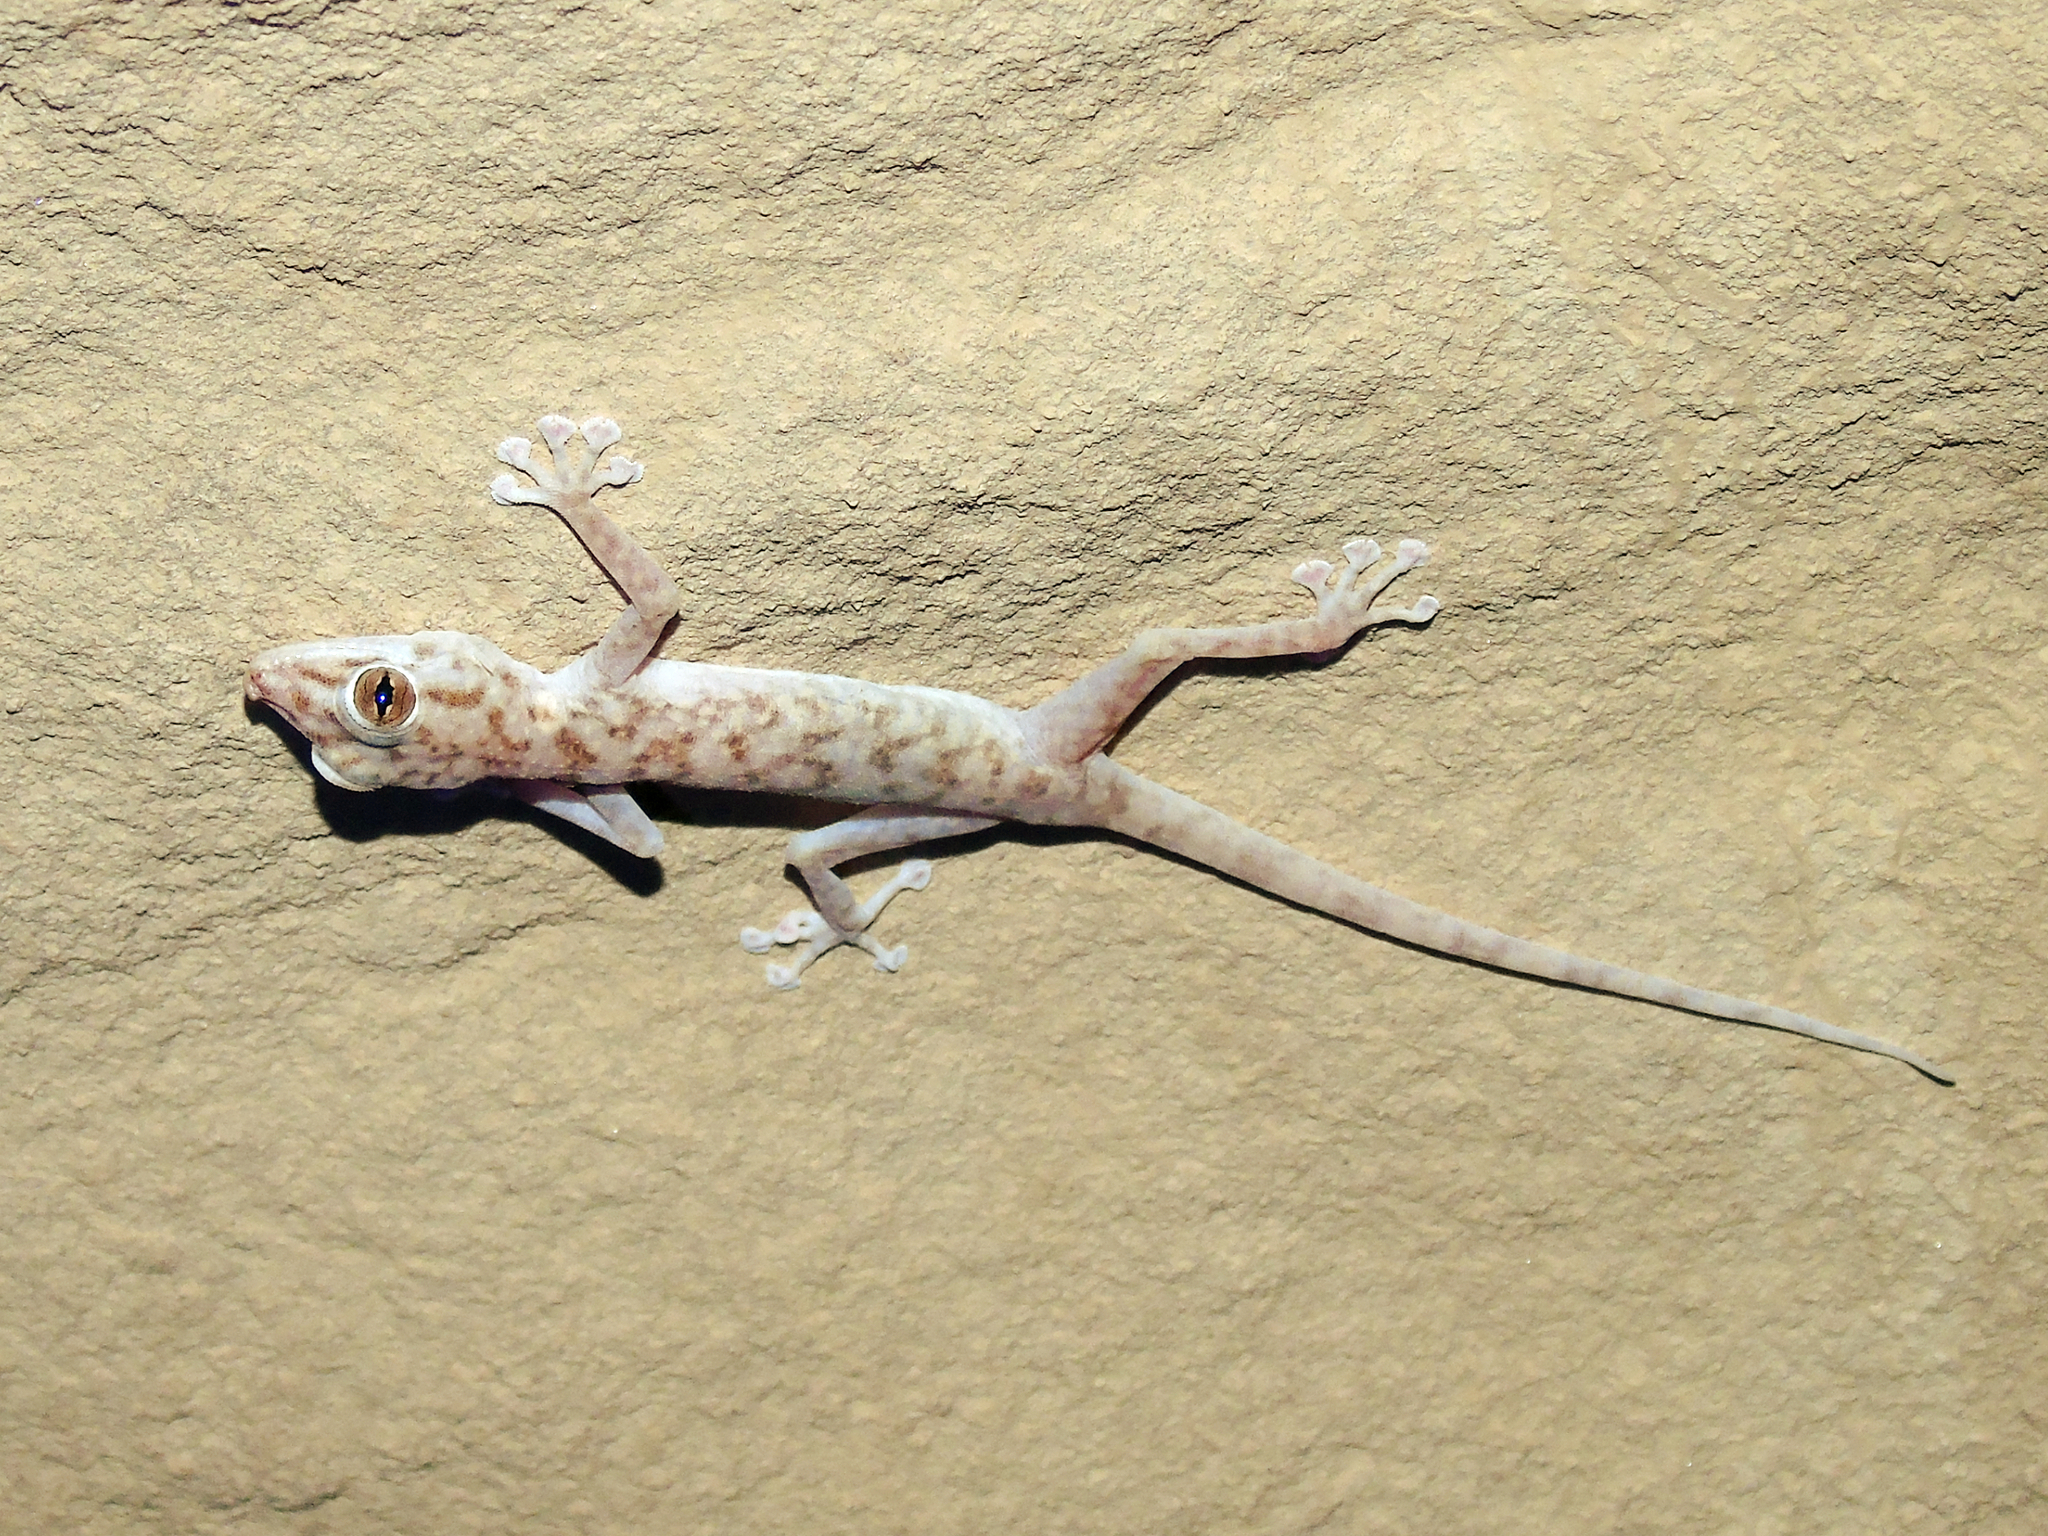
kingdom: Animalia
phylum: Chordata
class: Squamata
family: Phyllodactylidae
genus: Ptyodactylus
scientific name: Ptyodactylus hasselquistii
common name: Hasselquist’s fan-footed gecko
